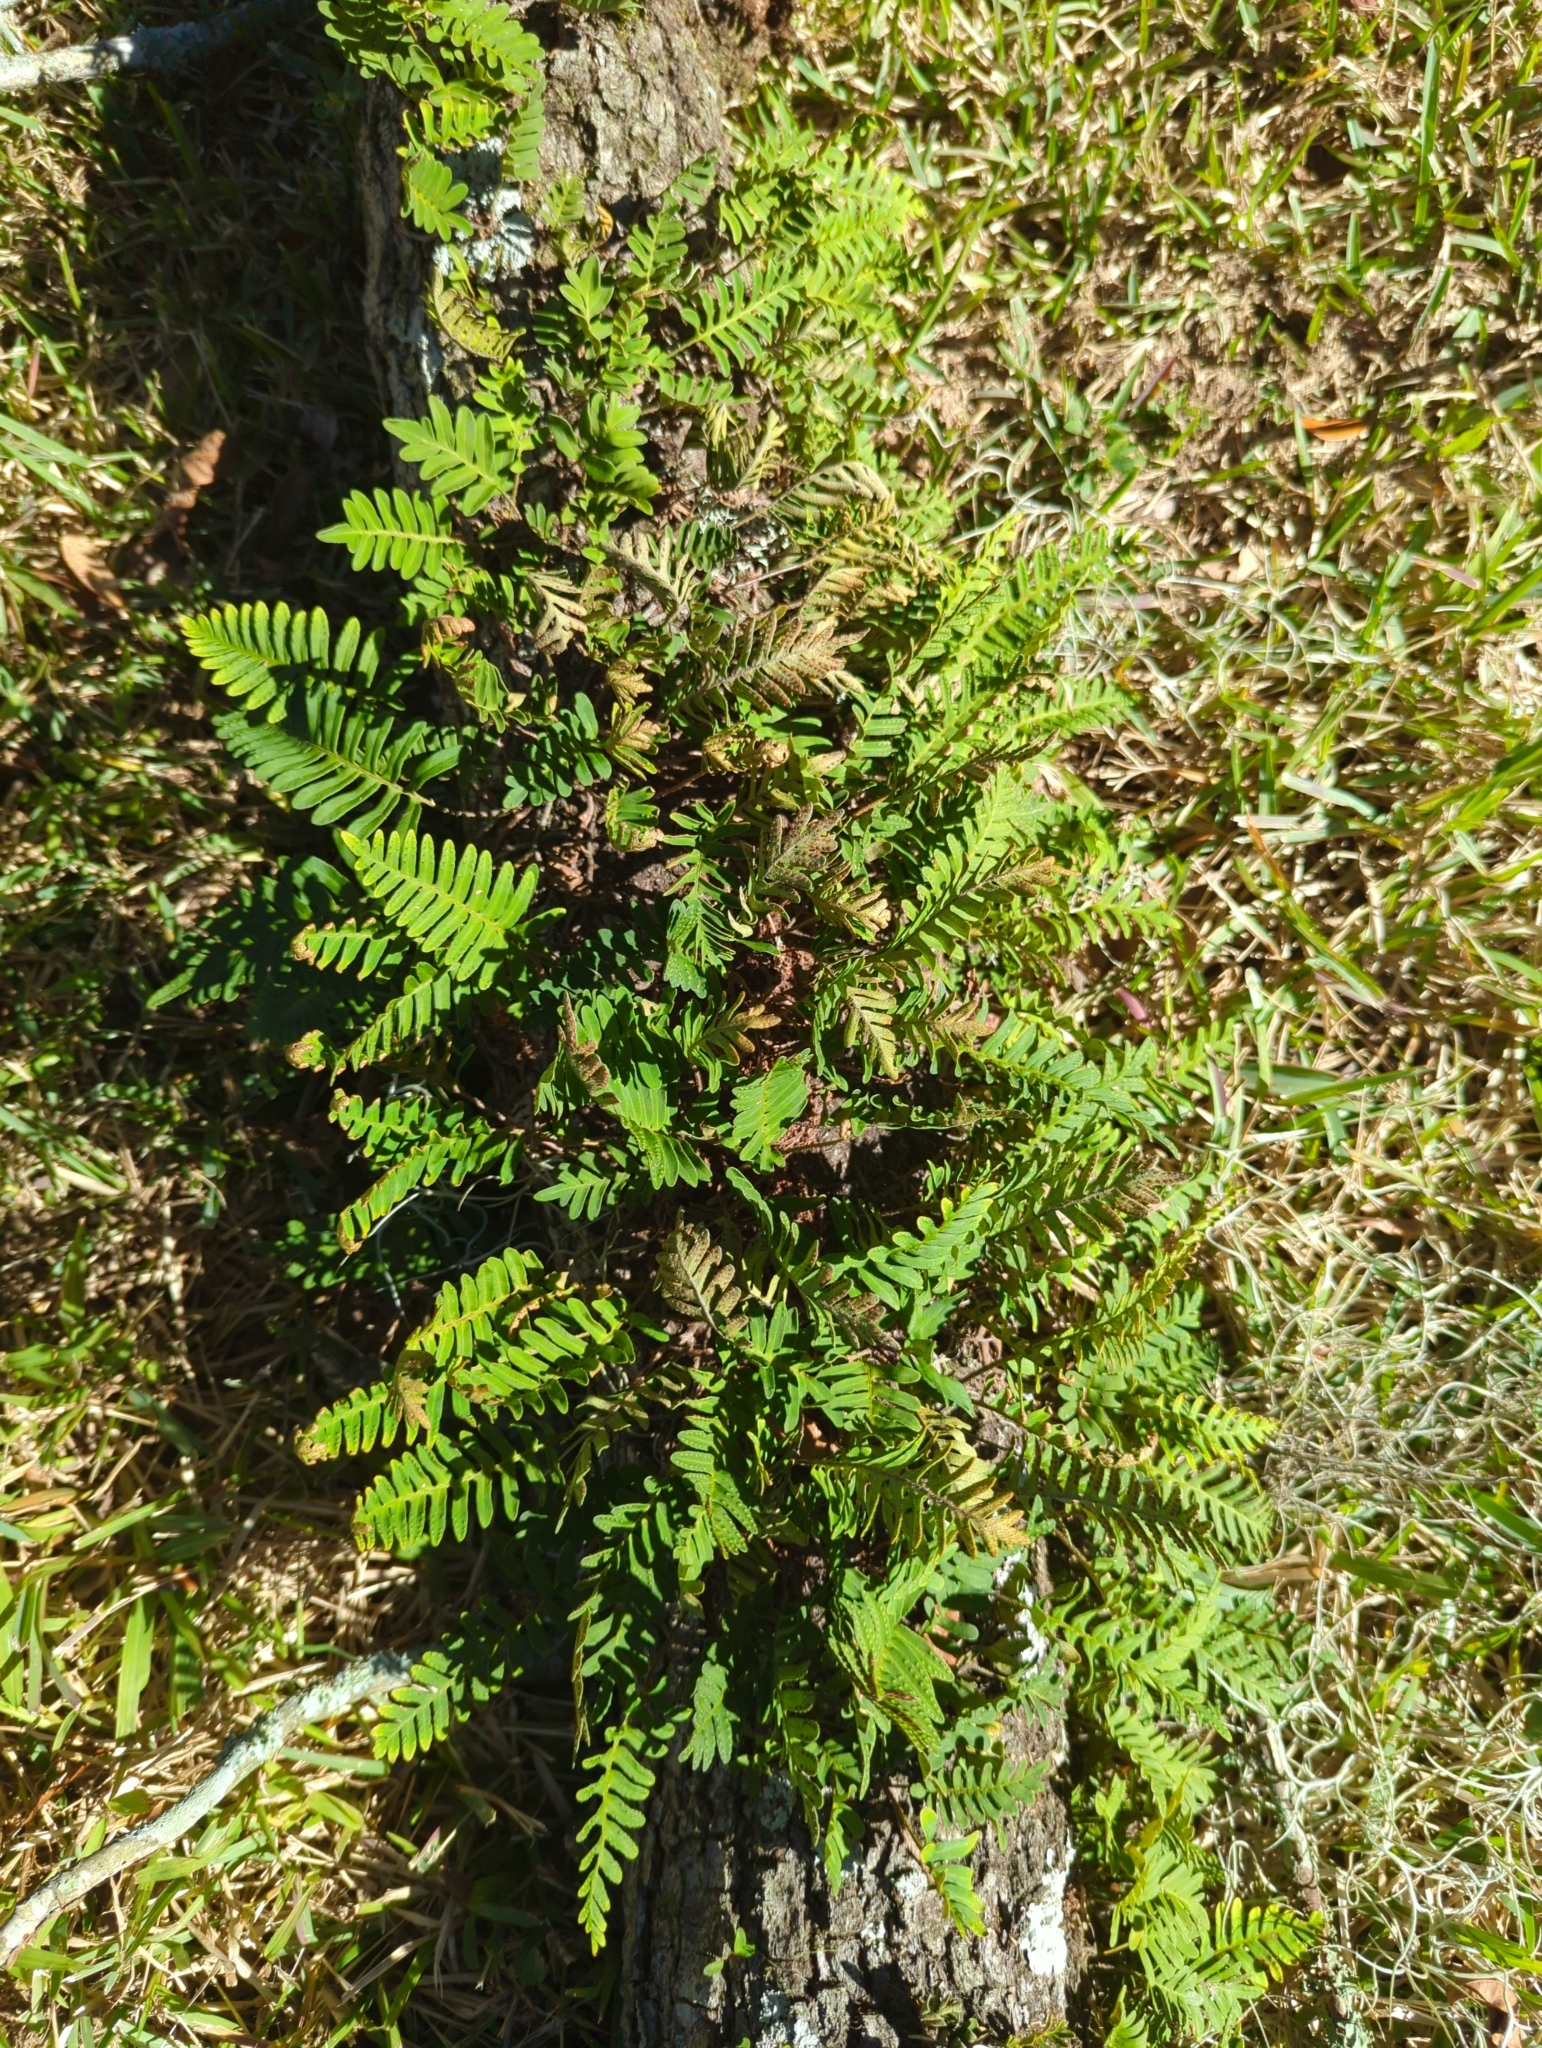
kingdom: Plantae
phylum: Tracheophyta
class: Polypodiopsida
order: Polypodiales
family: Polypodiaceae
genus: Pleopeltis
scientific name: Pleopeltis michauxiana
